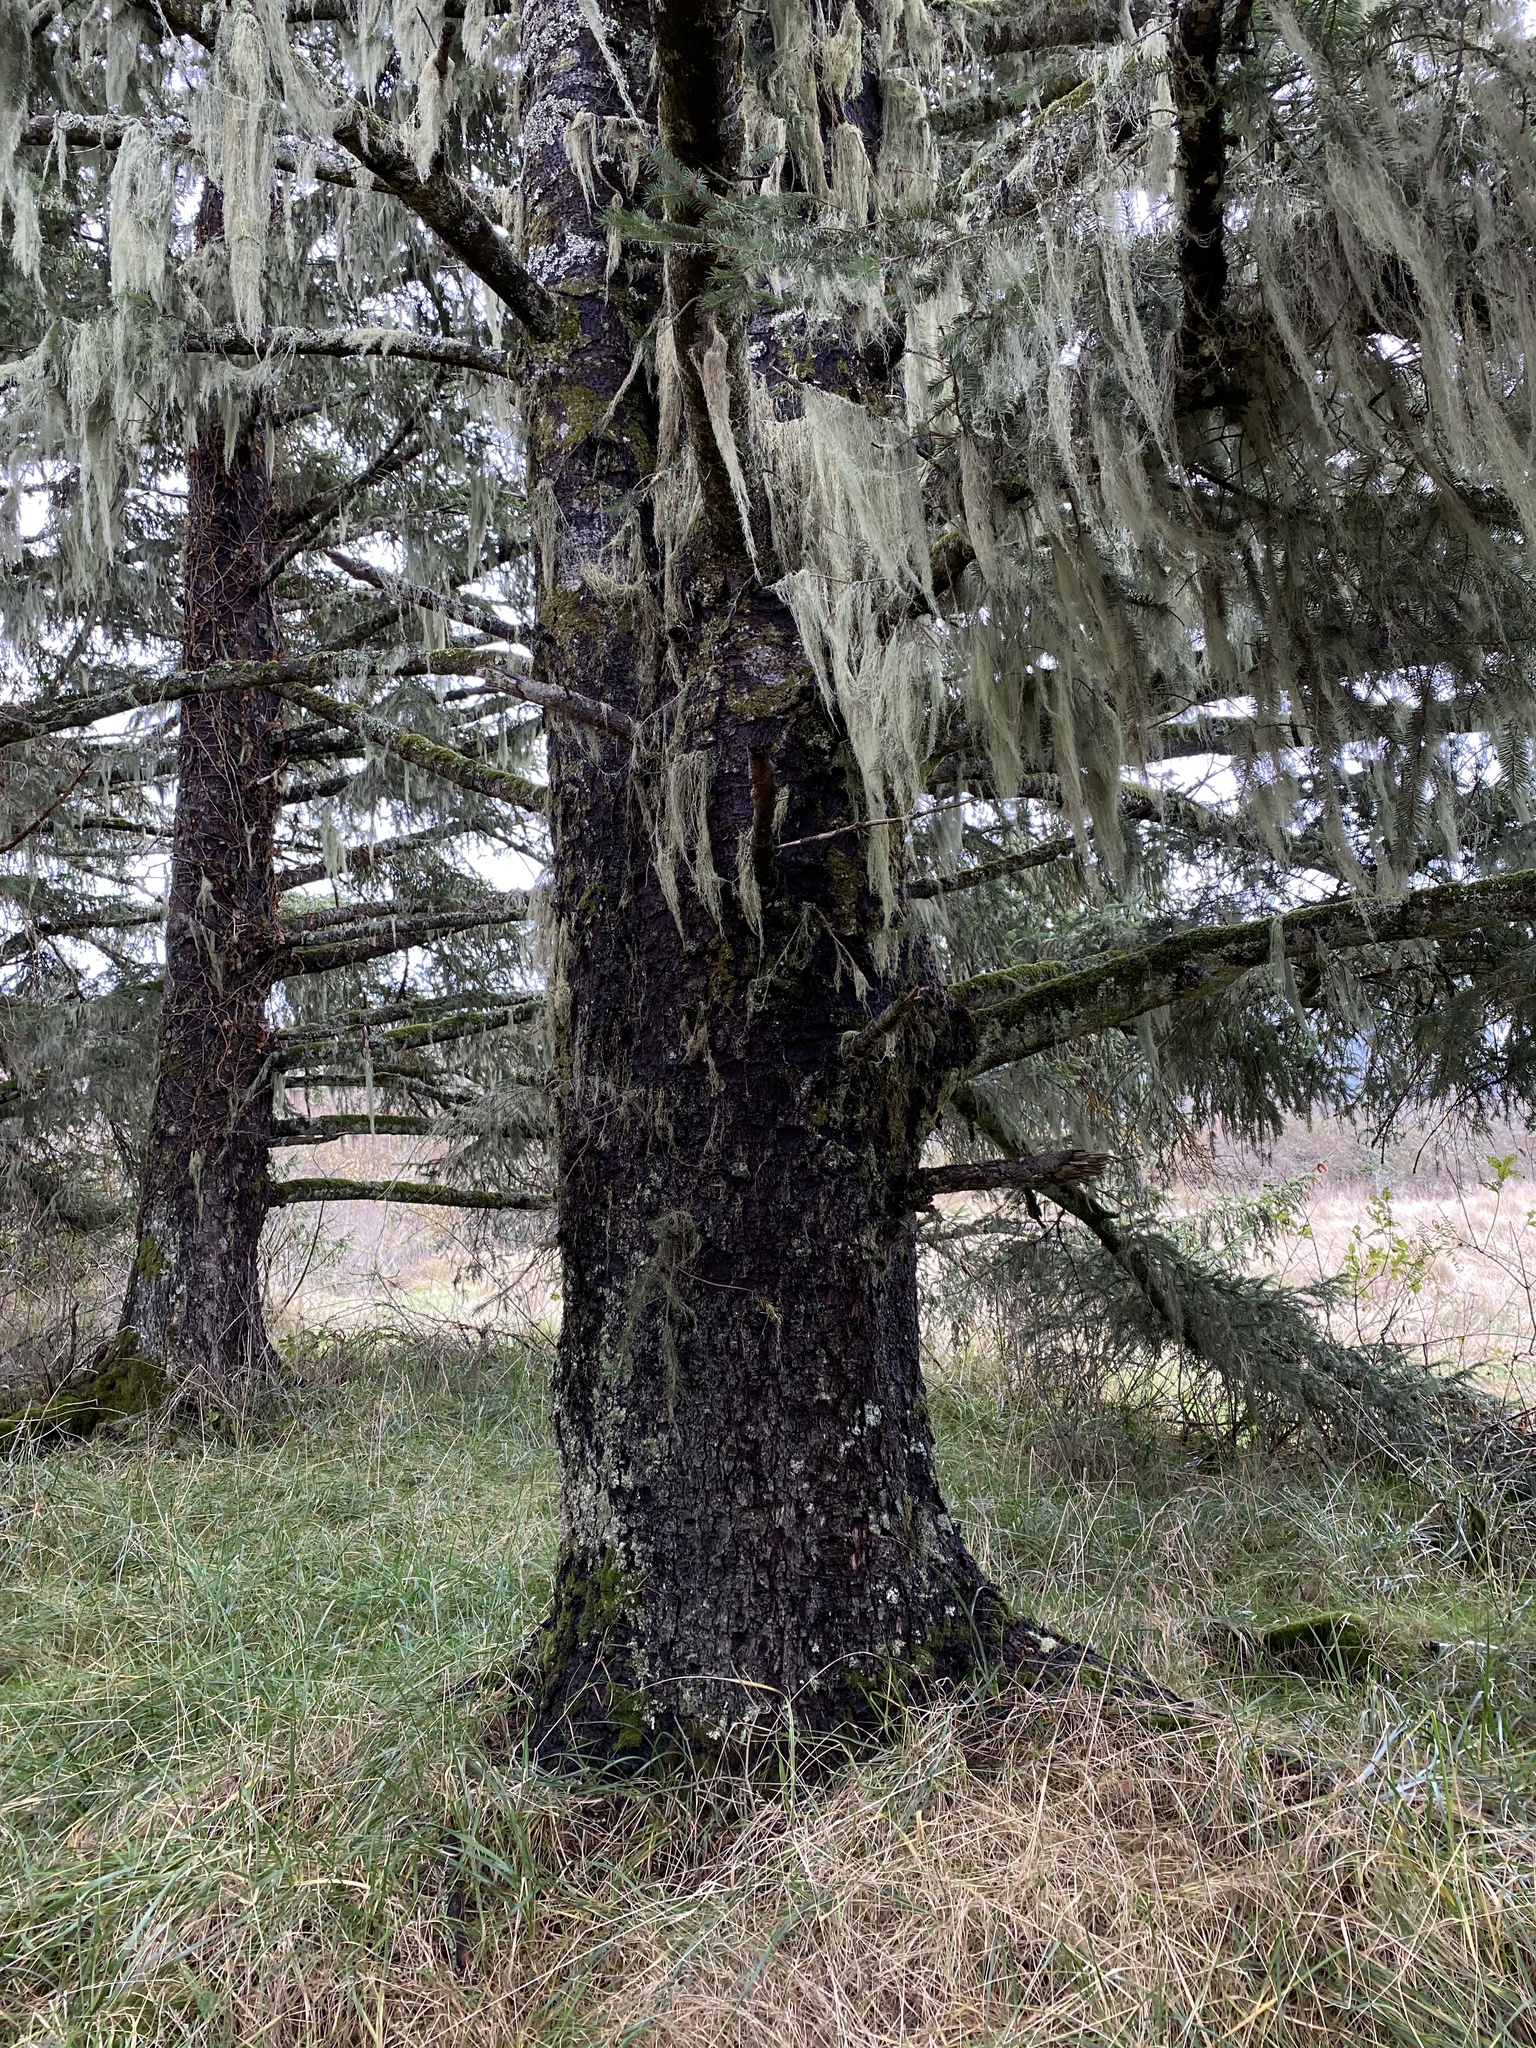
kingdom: Plantae
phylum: Tracheophyta
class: Pinopsida
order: Pinales
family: Pinaceae
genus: Picea
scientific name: Picea sitchensis
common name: Sitka spruce
